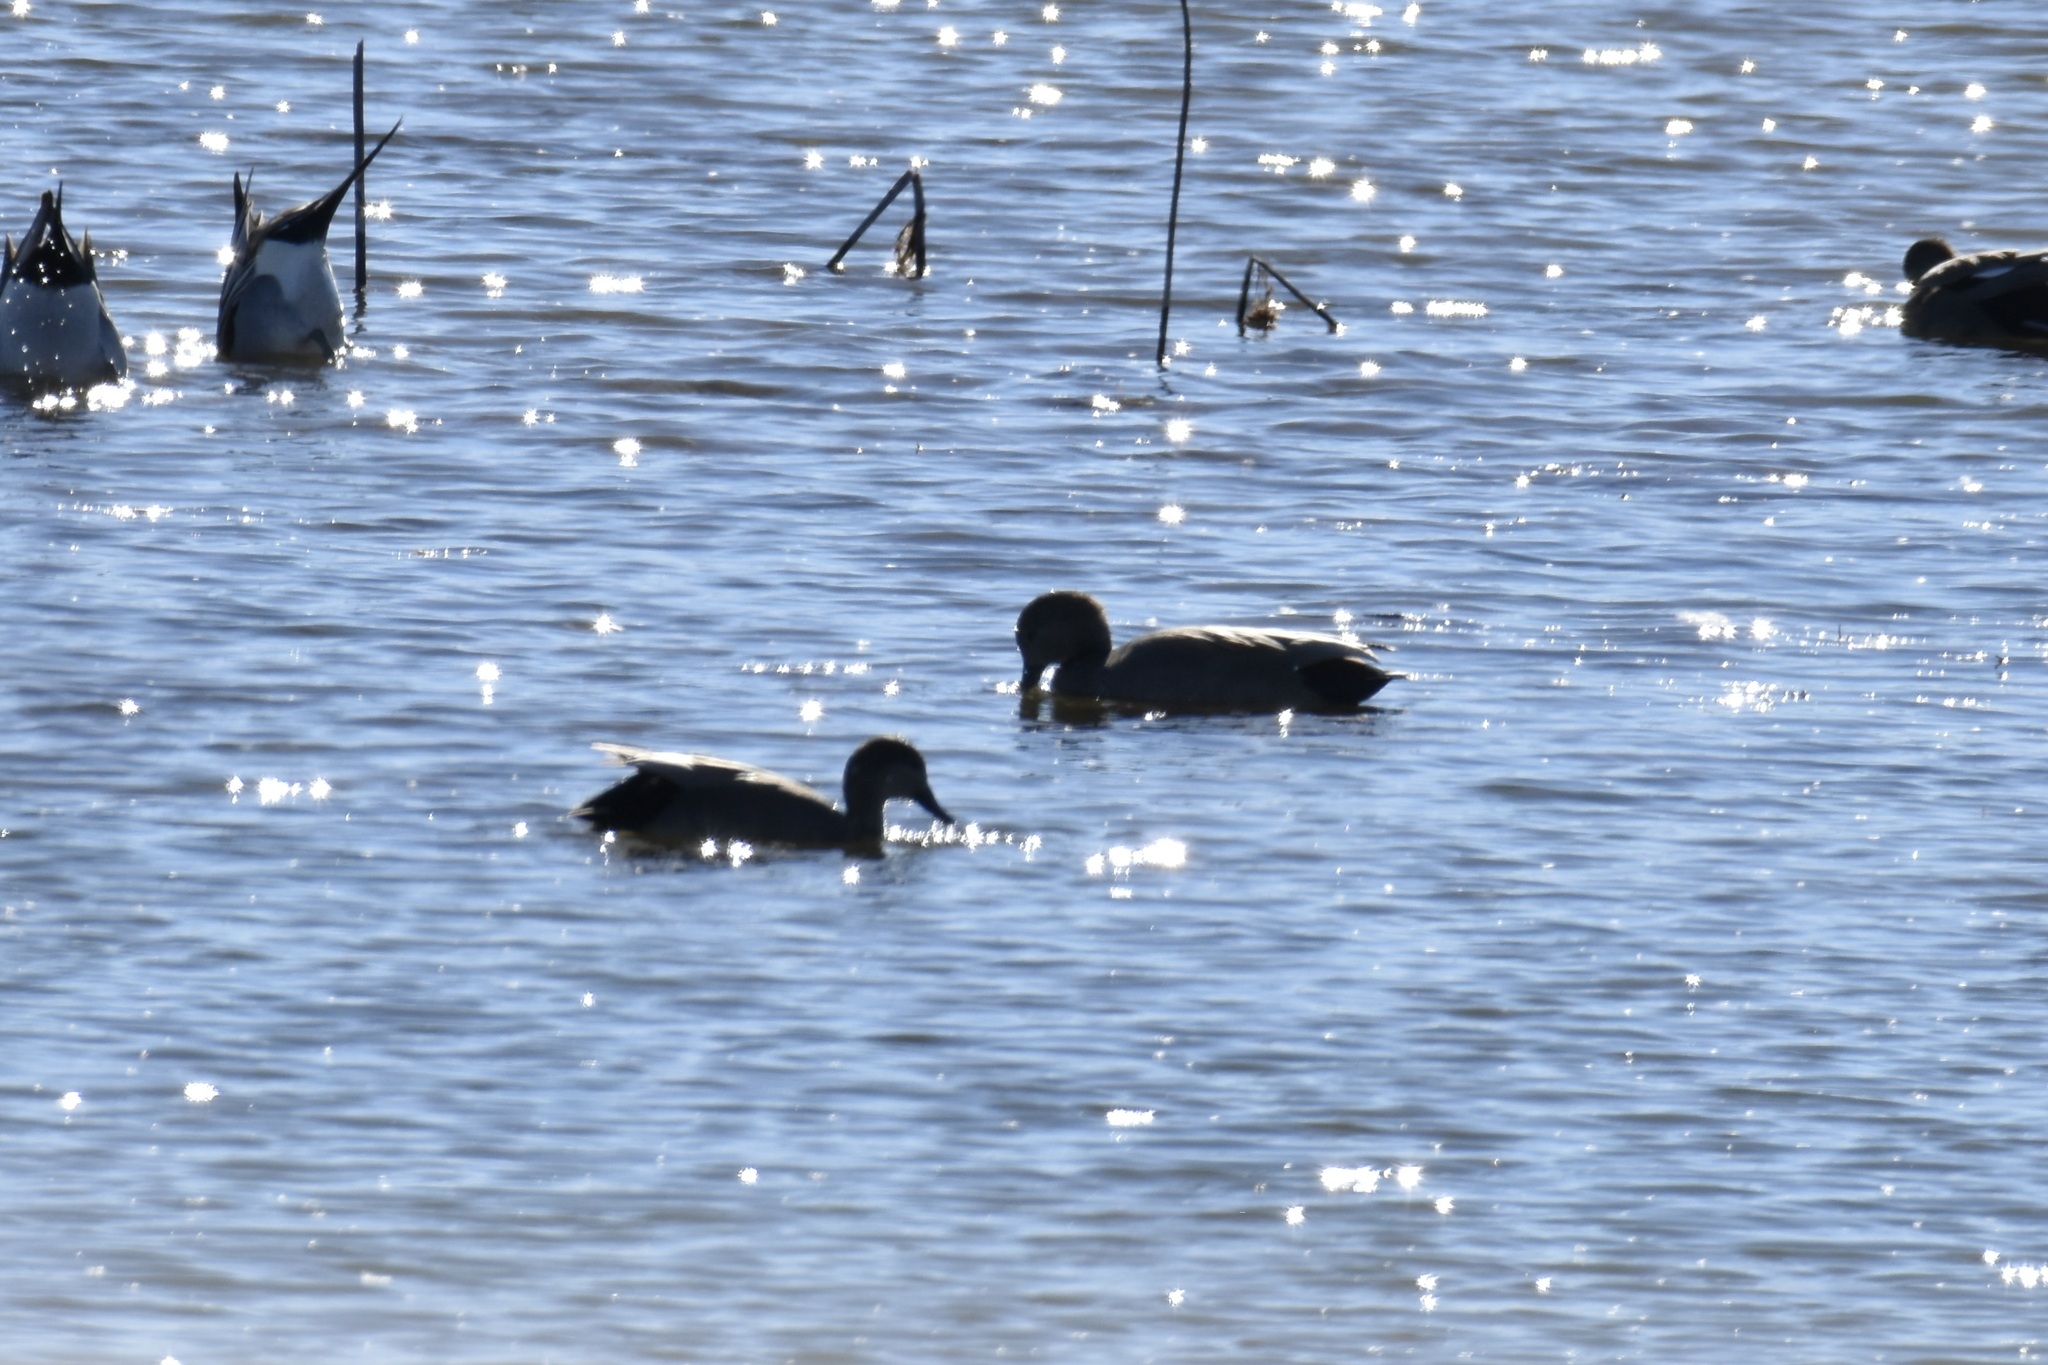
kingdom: Animalia
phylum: Chordata
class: Aves
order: Anseriformes
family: Anatidae
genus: Mareca
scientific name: Mareca strepera
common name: Gadwall
